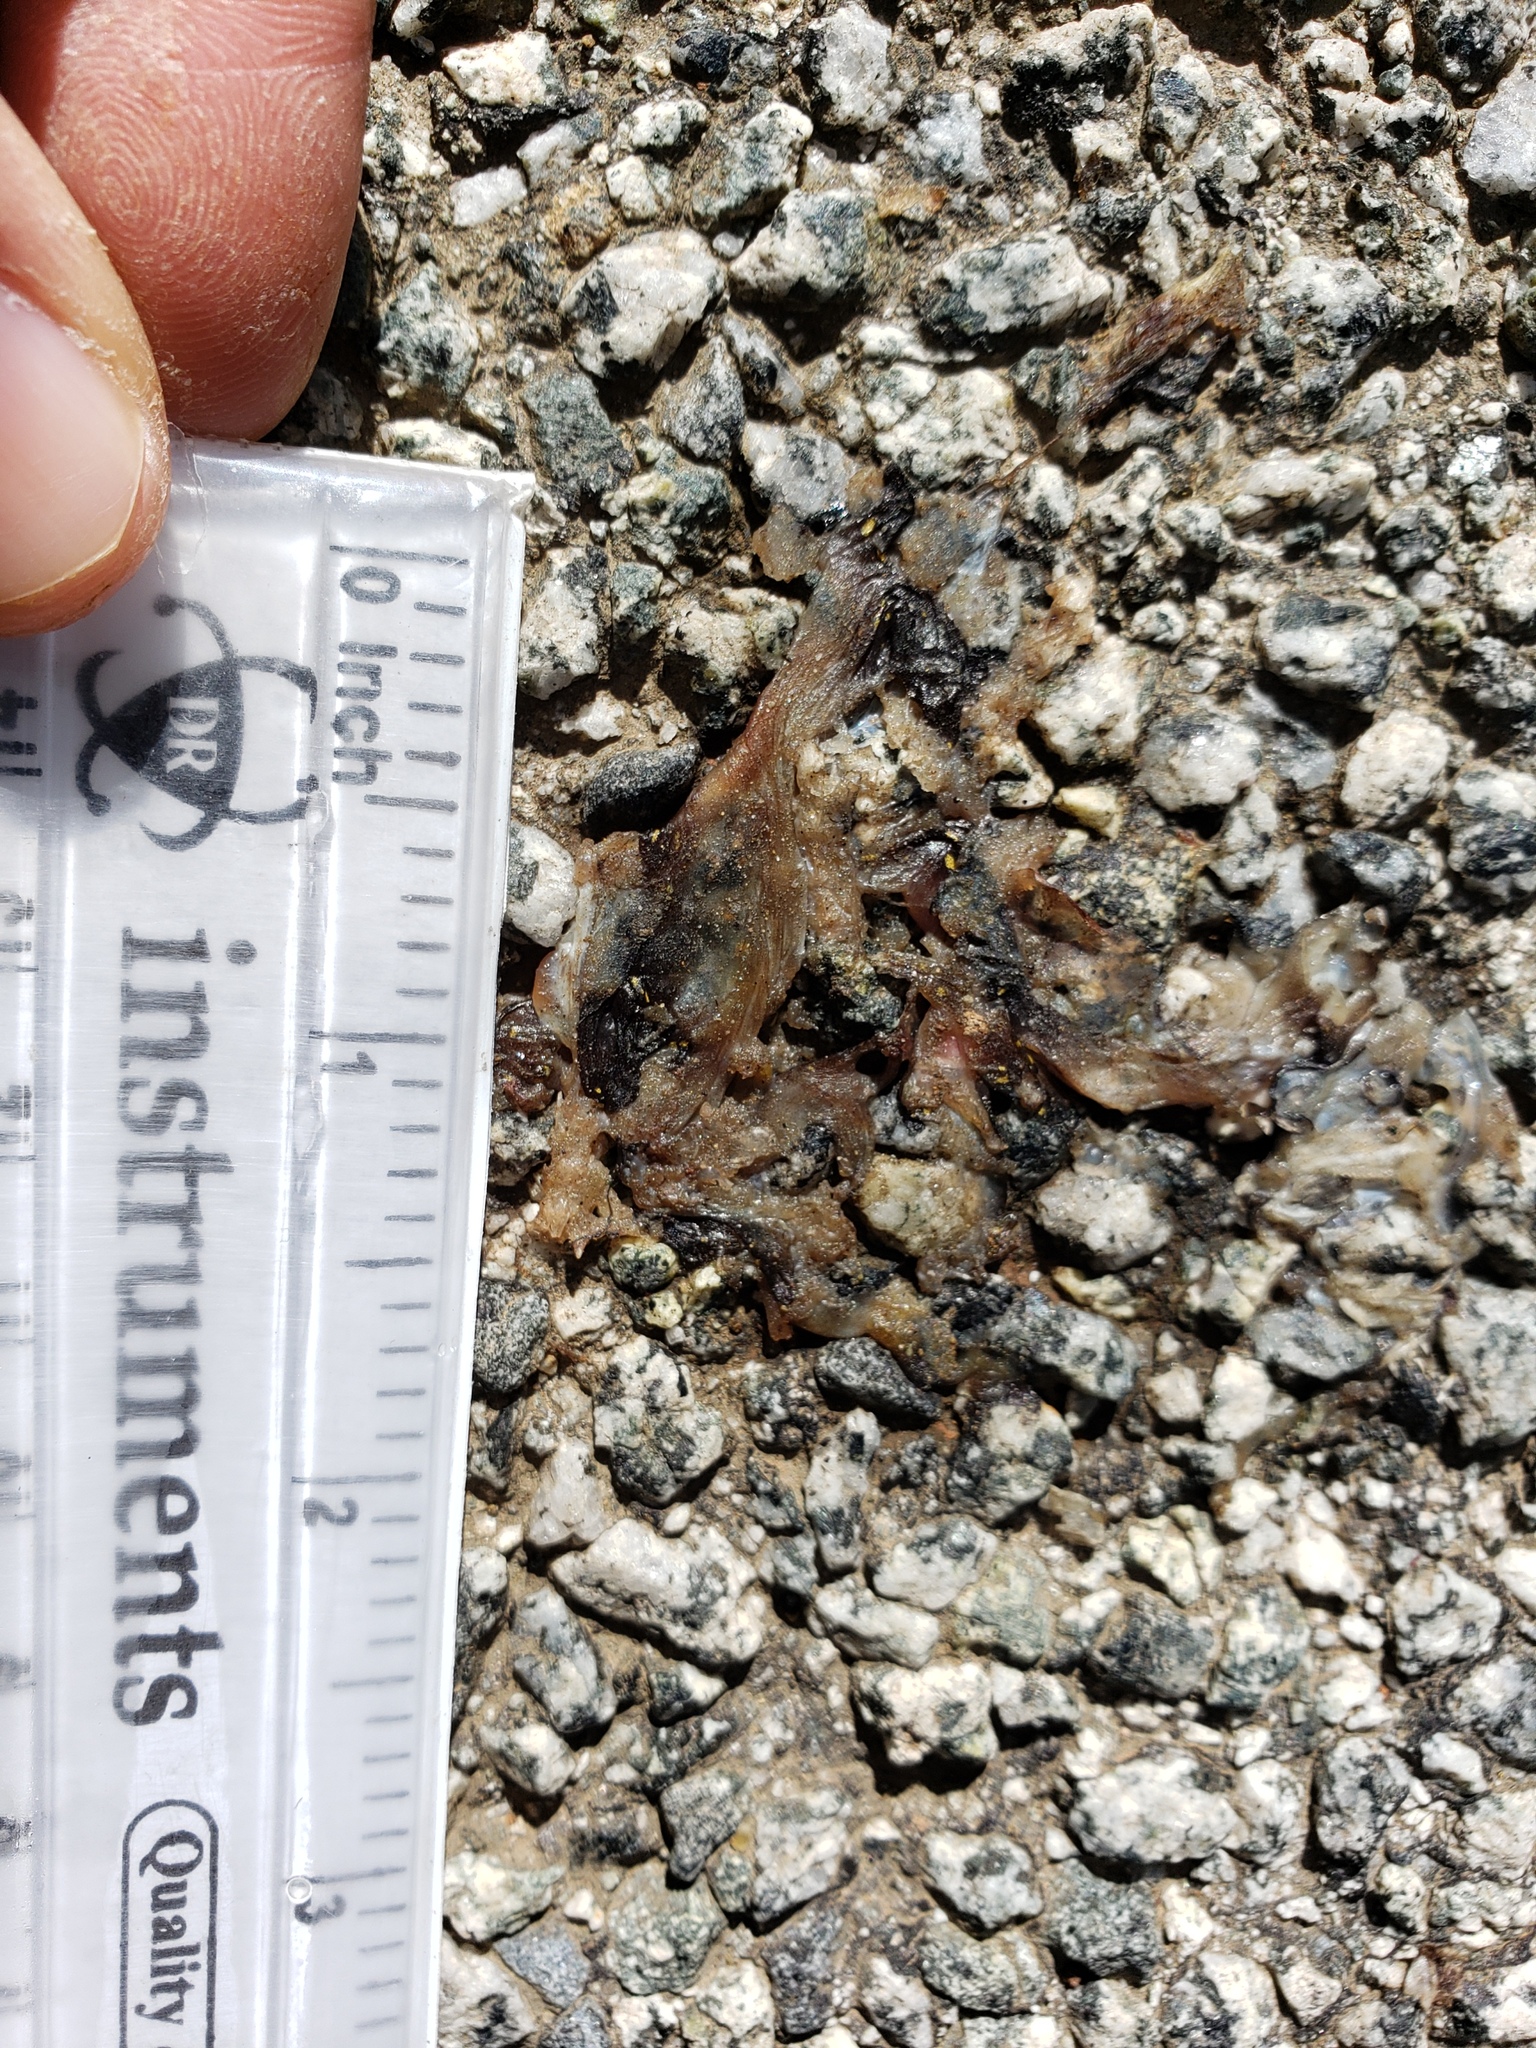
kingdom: Animalia
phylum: Chordata
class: Amphibia
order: Caudata
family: Salamandridae
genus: Taricha
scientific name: Taricha
